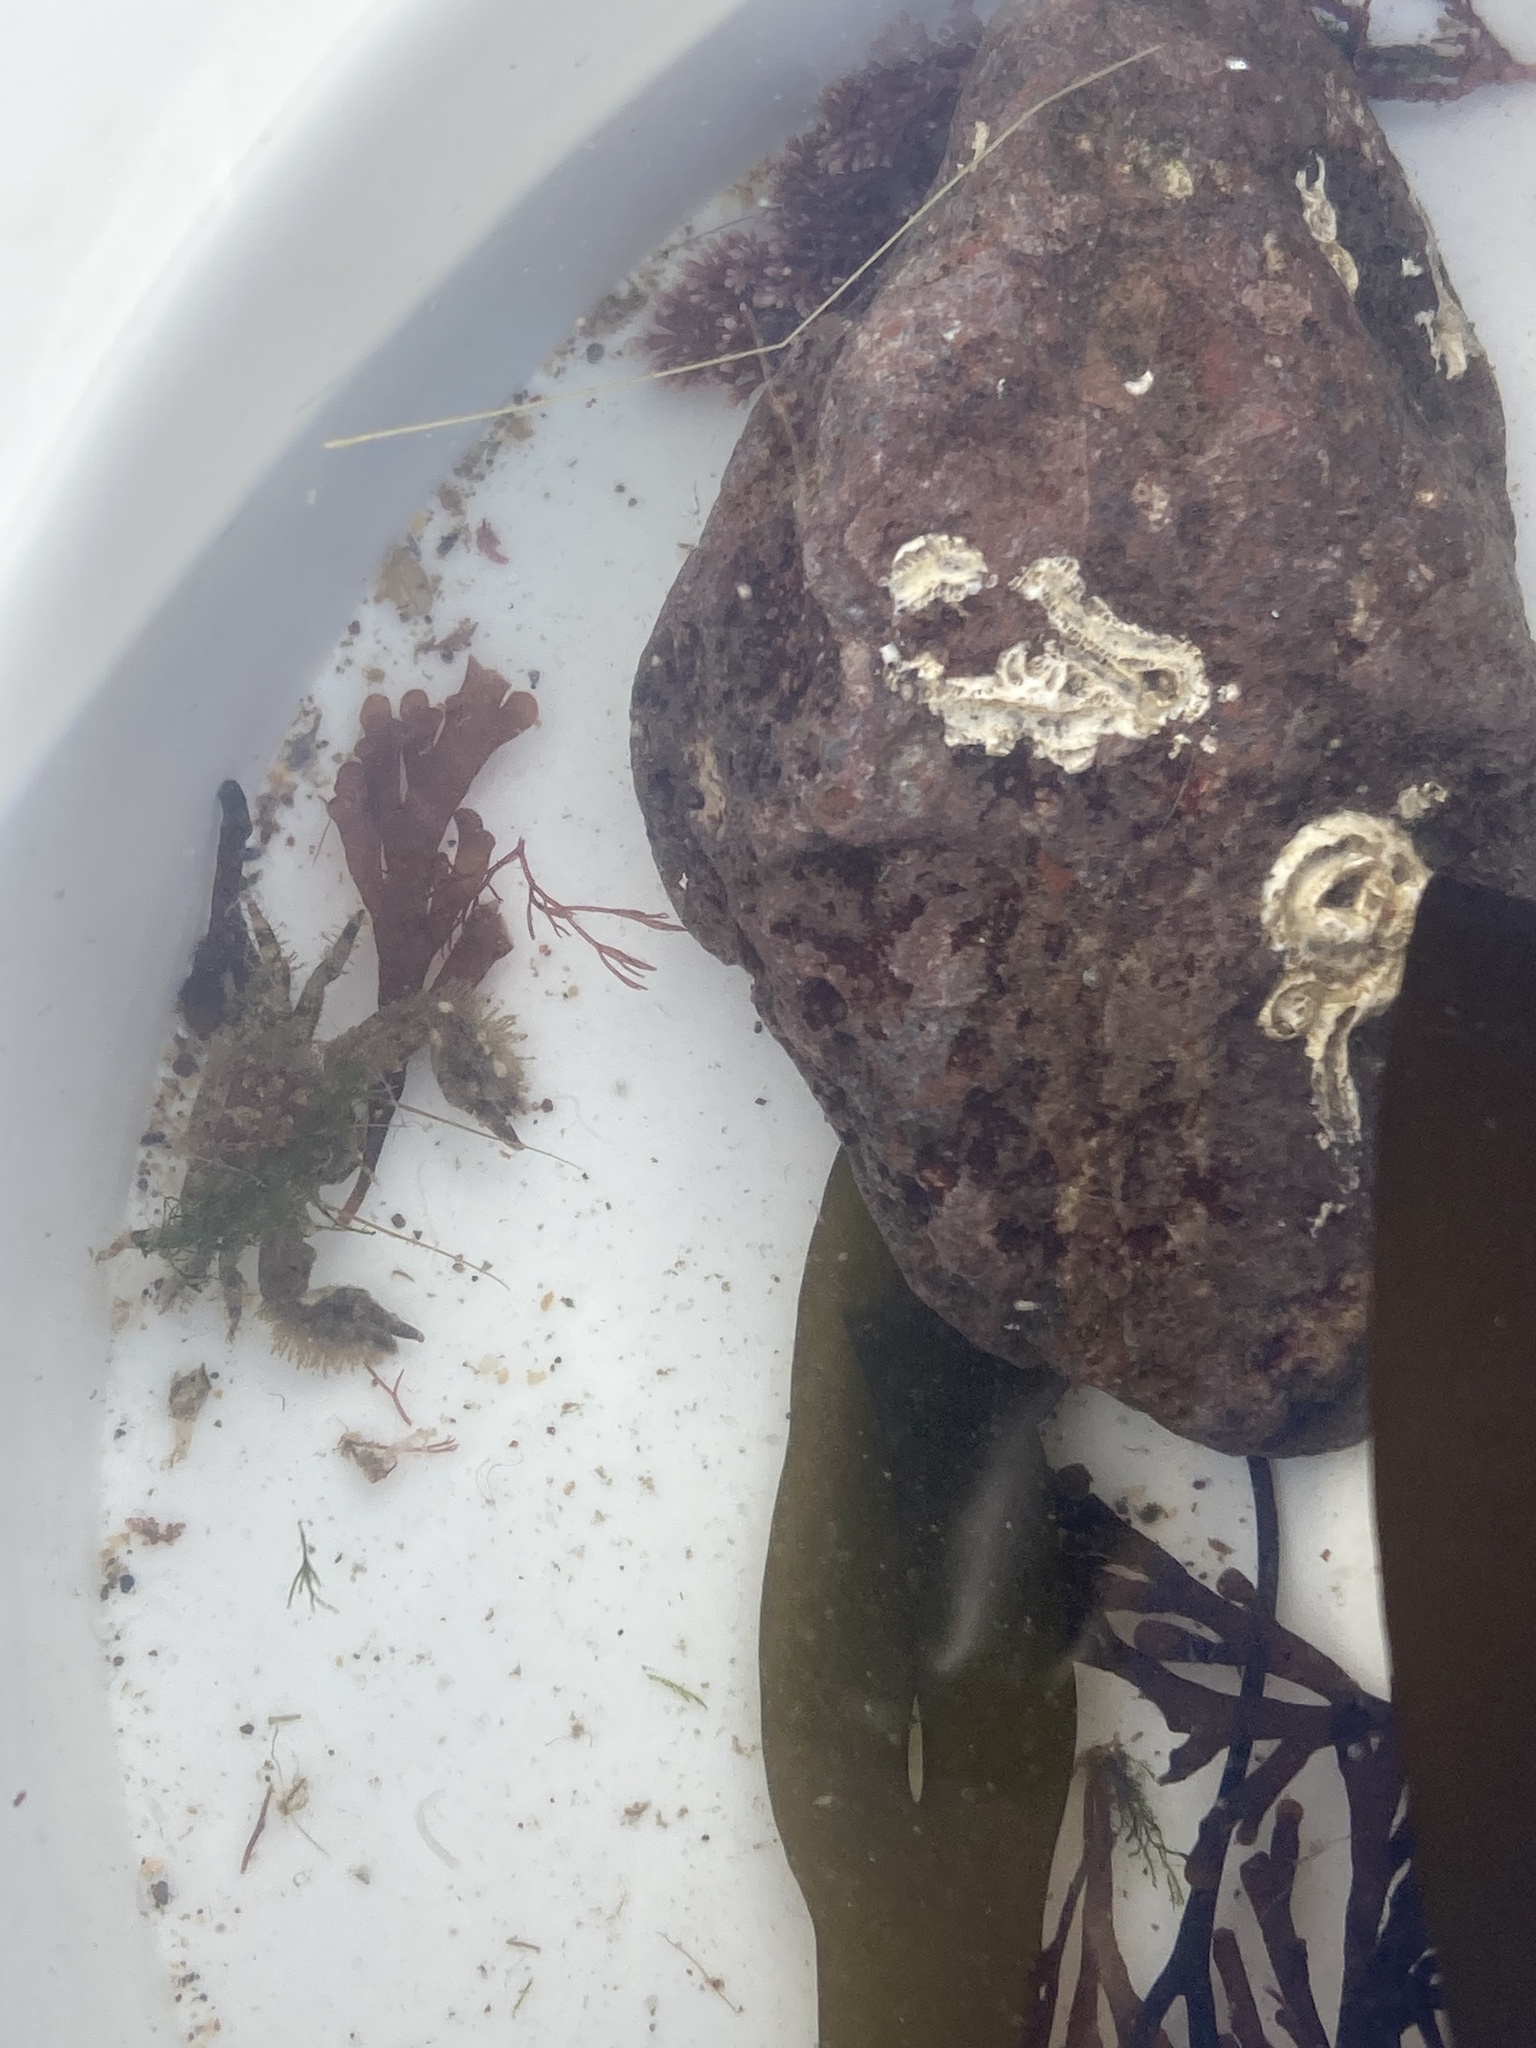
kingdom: Animalia
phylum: Arthropoda
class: Malacostraca
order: Decapoda
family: Porcellanidae
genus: Porcellana
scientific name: Porcellana platycheles
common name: Porcelain crab
